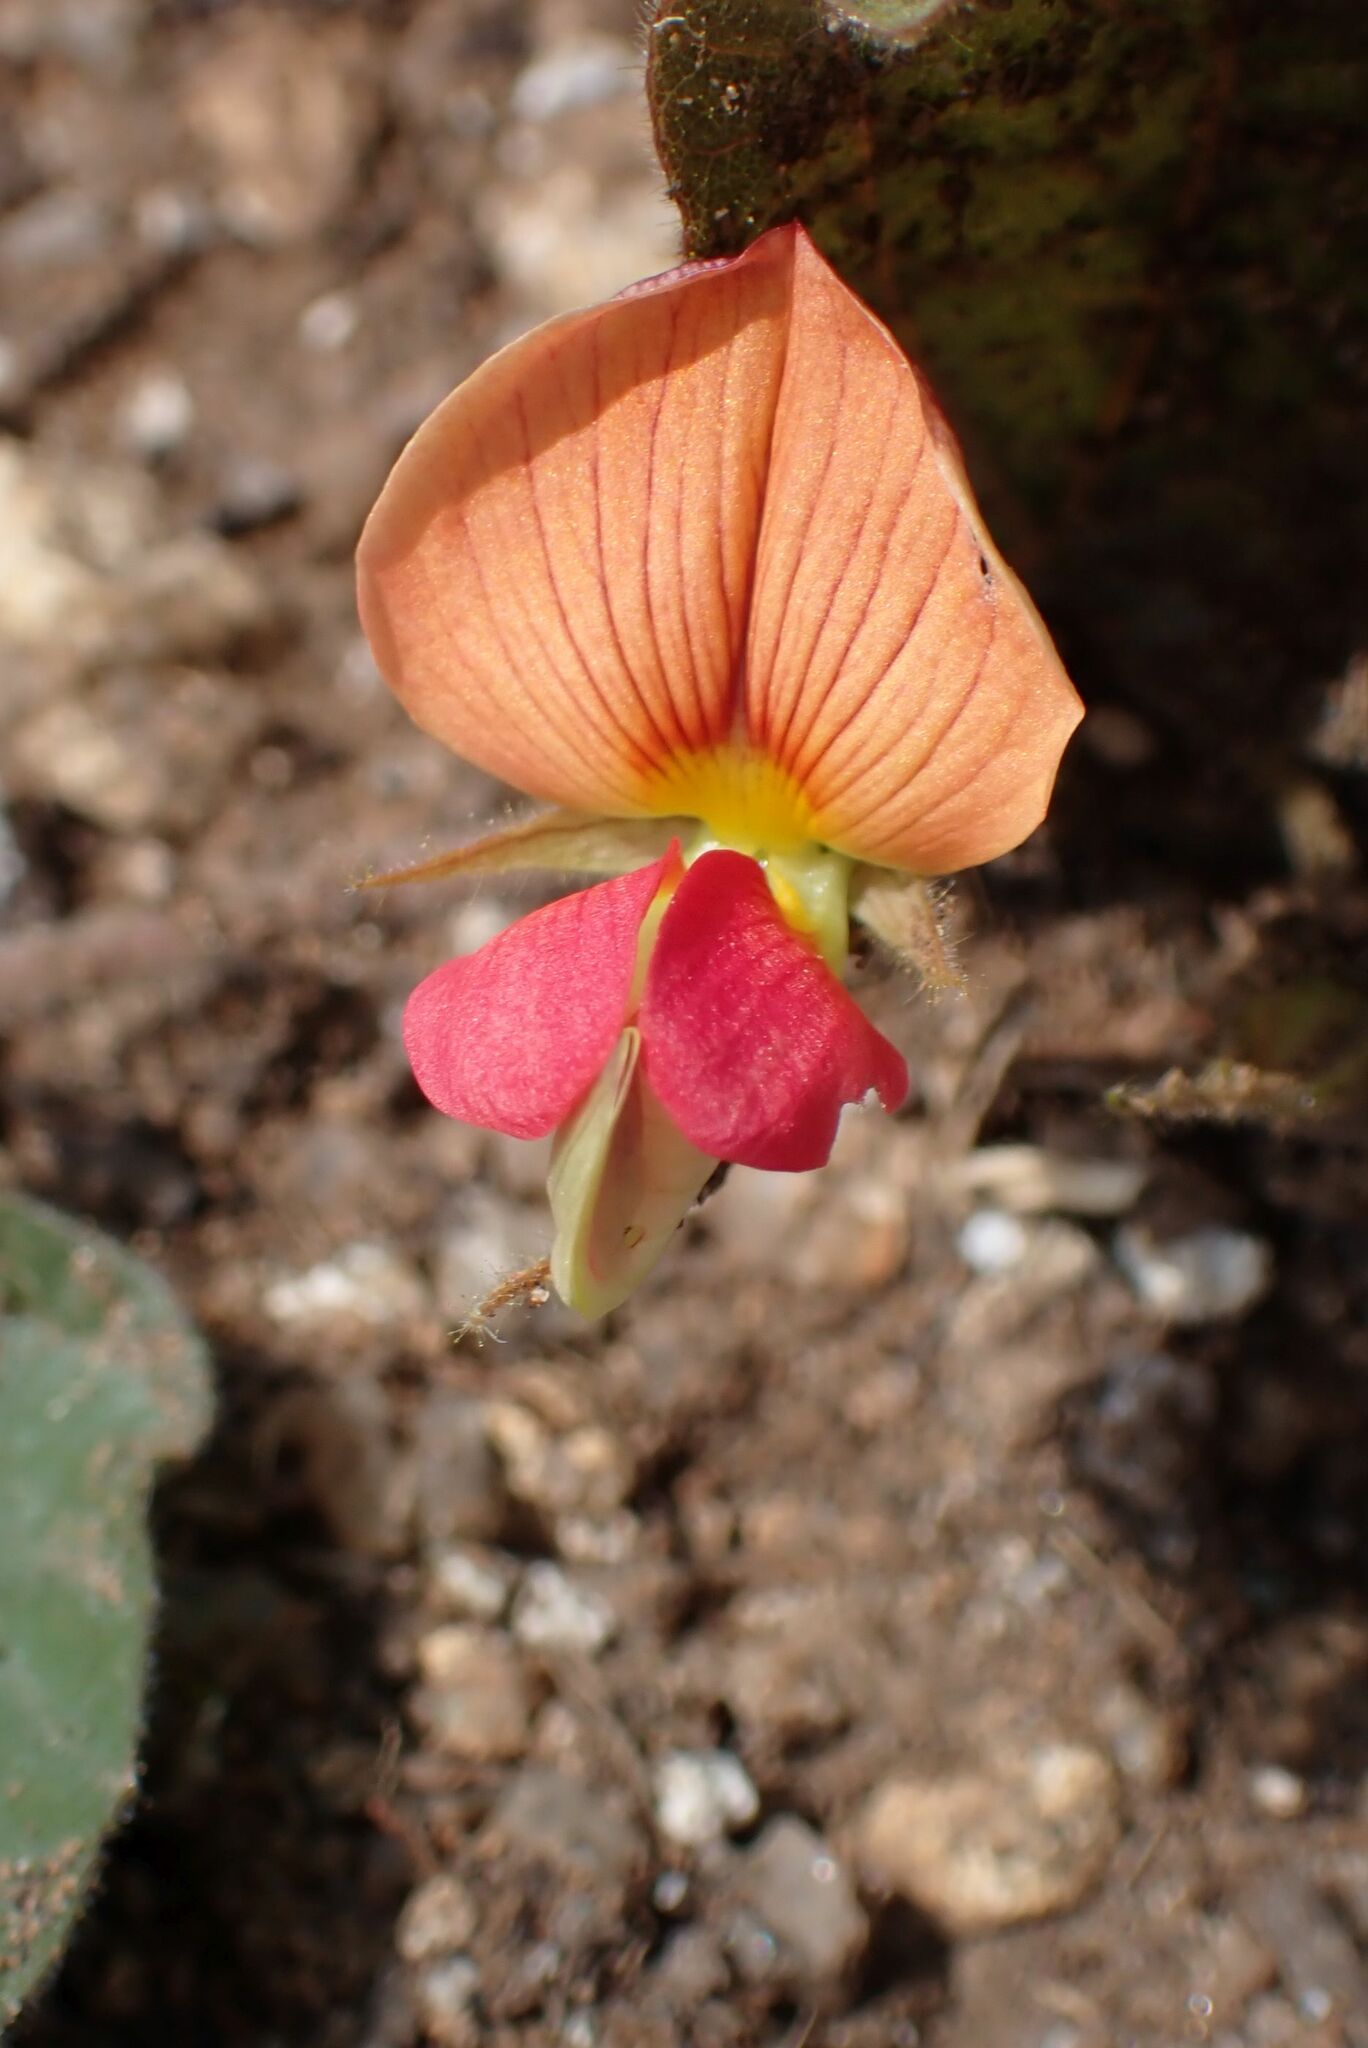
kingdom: Plantae
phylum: Tracheophyta
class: Magnoliopsida
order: Fabales
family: Fabaceae
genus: Rhynchosia
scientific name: Rhynchosia monophylla
